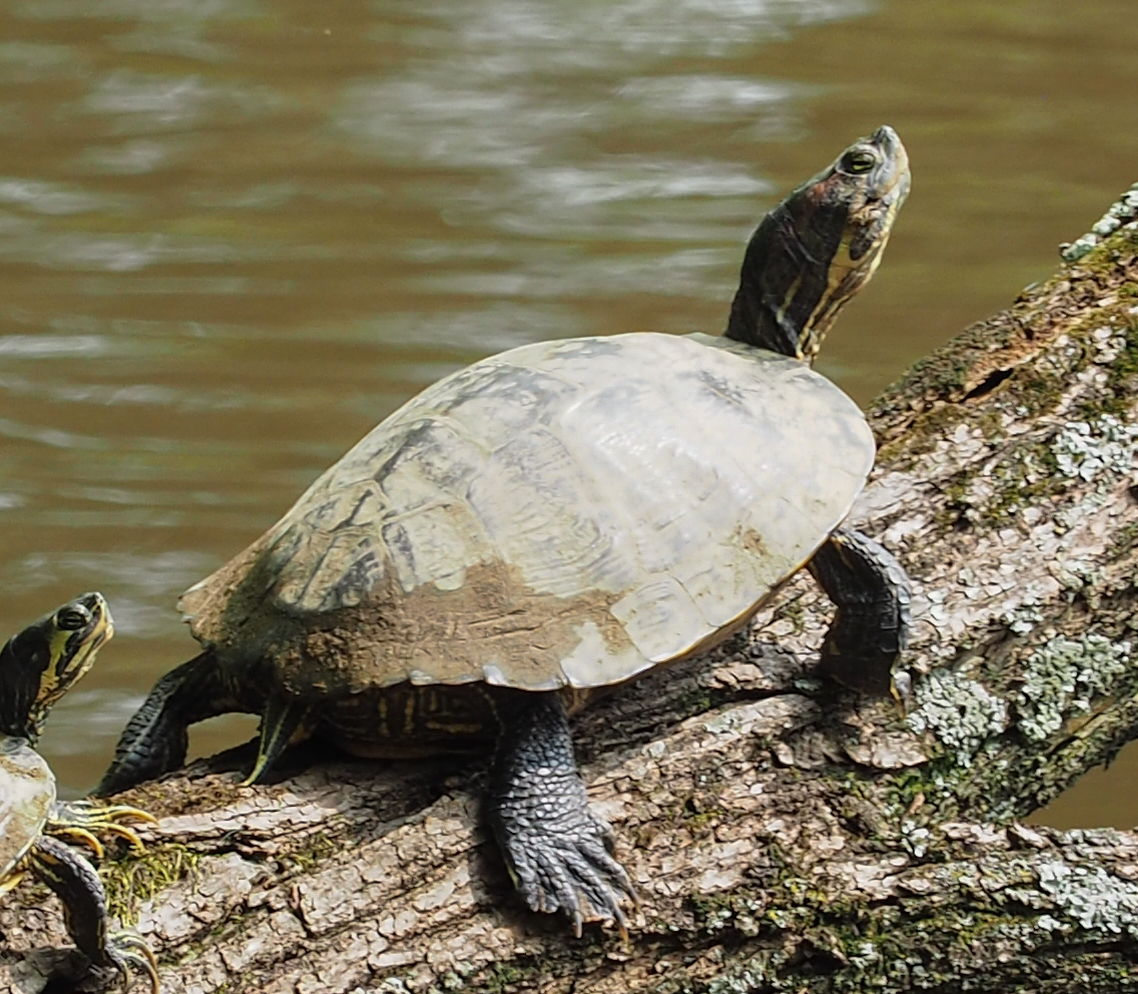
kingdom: Animalia
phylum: Chordata
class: Testudines
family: Emydidae
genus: Trachemys
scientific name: Trachemys scripta
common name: Slider
